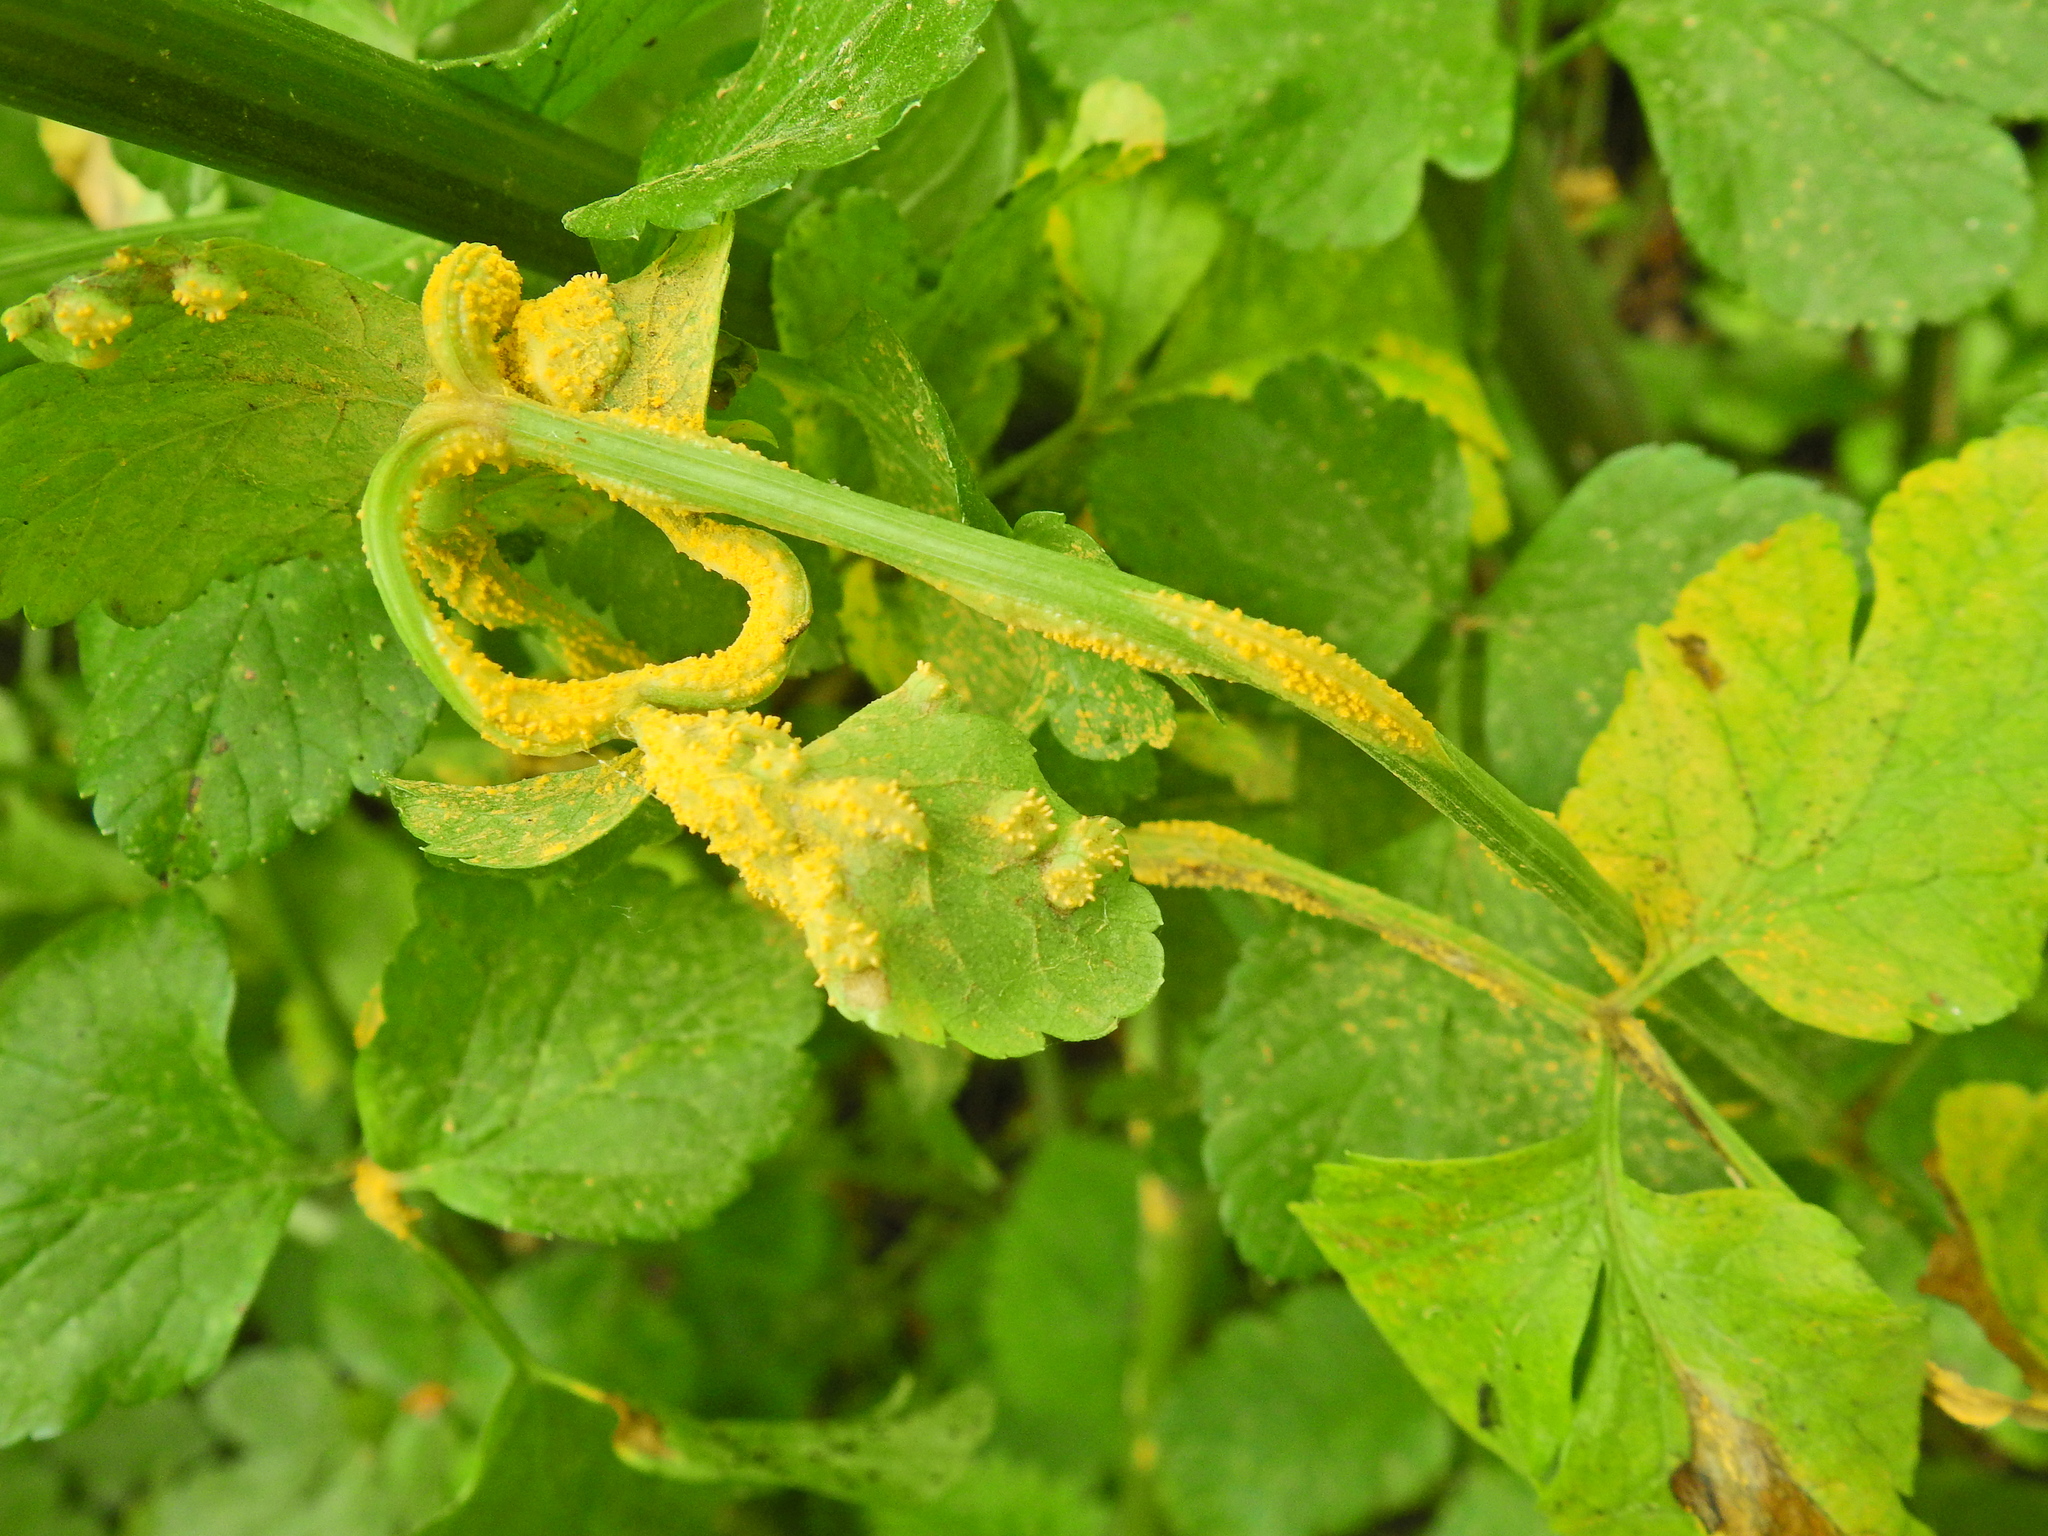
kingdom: Fungi
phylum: Basidiomycota
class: Pucciniomycetes
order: Pucciniales
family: Pucciniaceae
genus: Puccinia
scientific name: Puccinia smyrnii
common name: Alexanders rust
